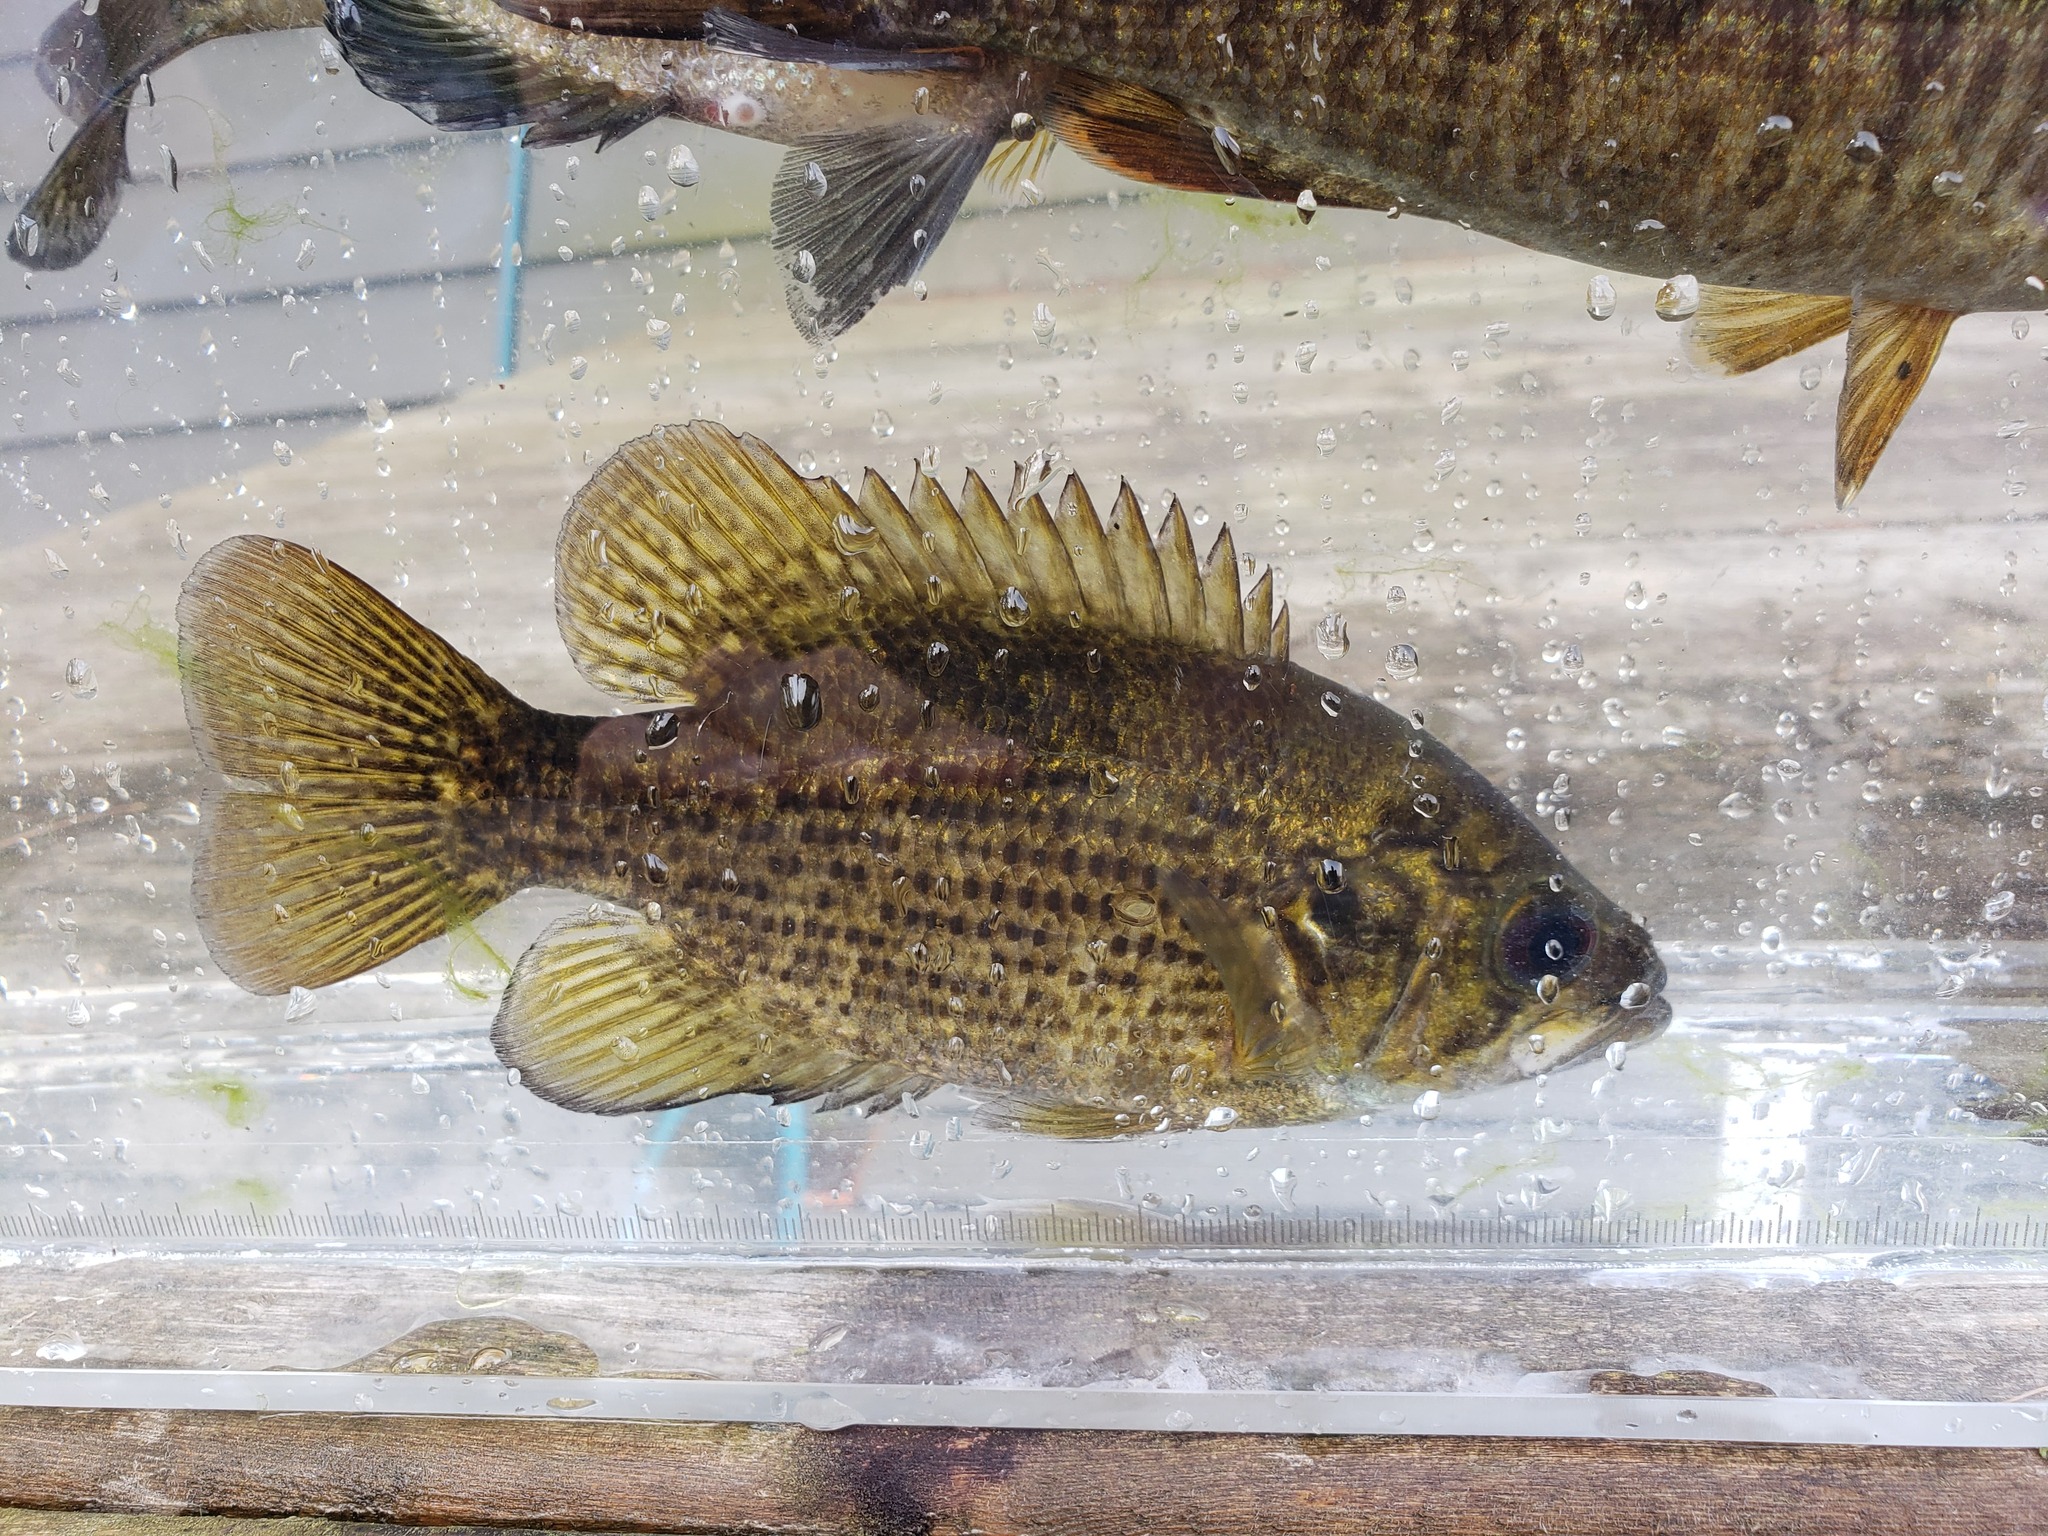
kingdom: Animalia
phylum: Chordata
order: Perciformes
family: Centrarchidae
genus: Ambloplites
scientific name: Ambloplites rupestris
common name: Rock bass
